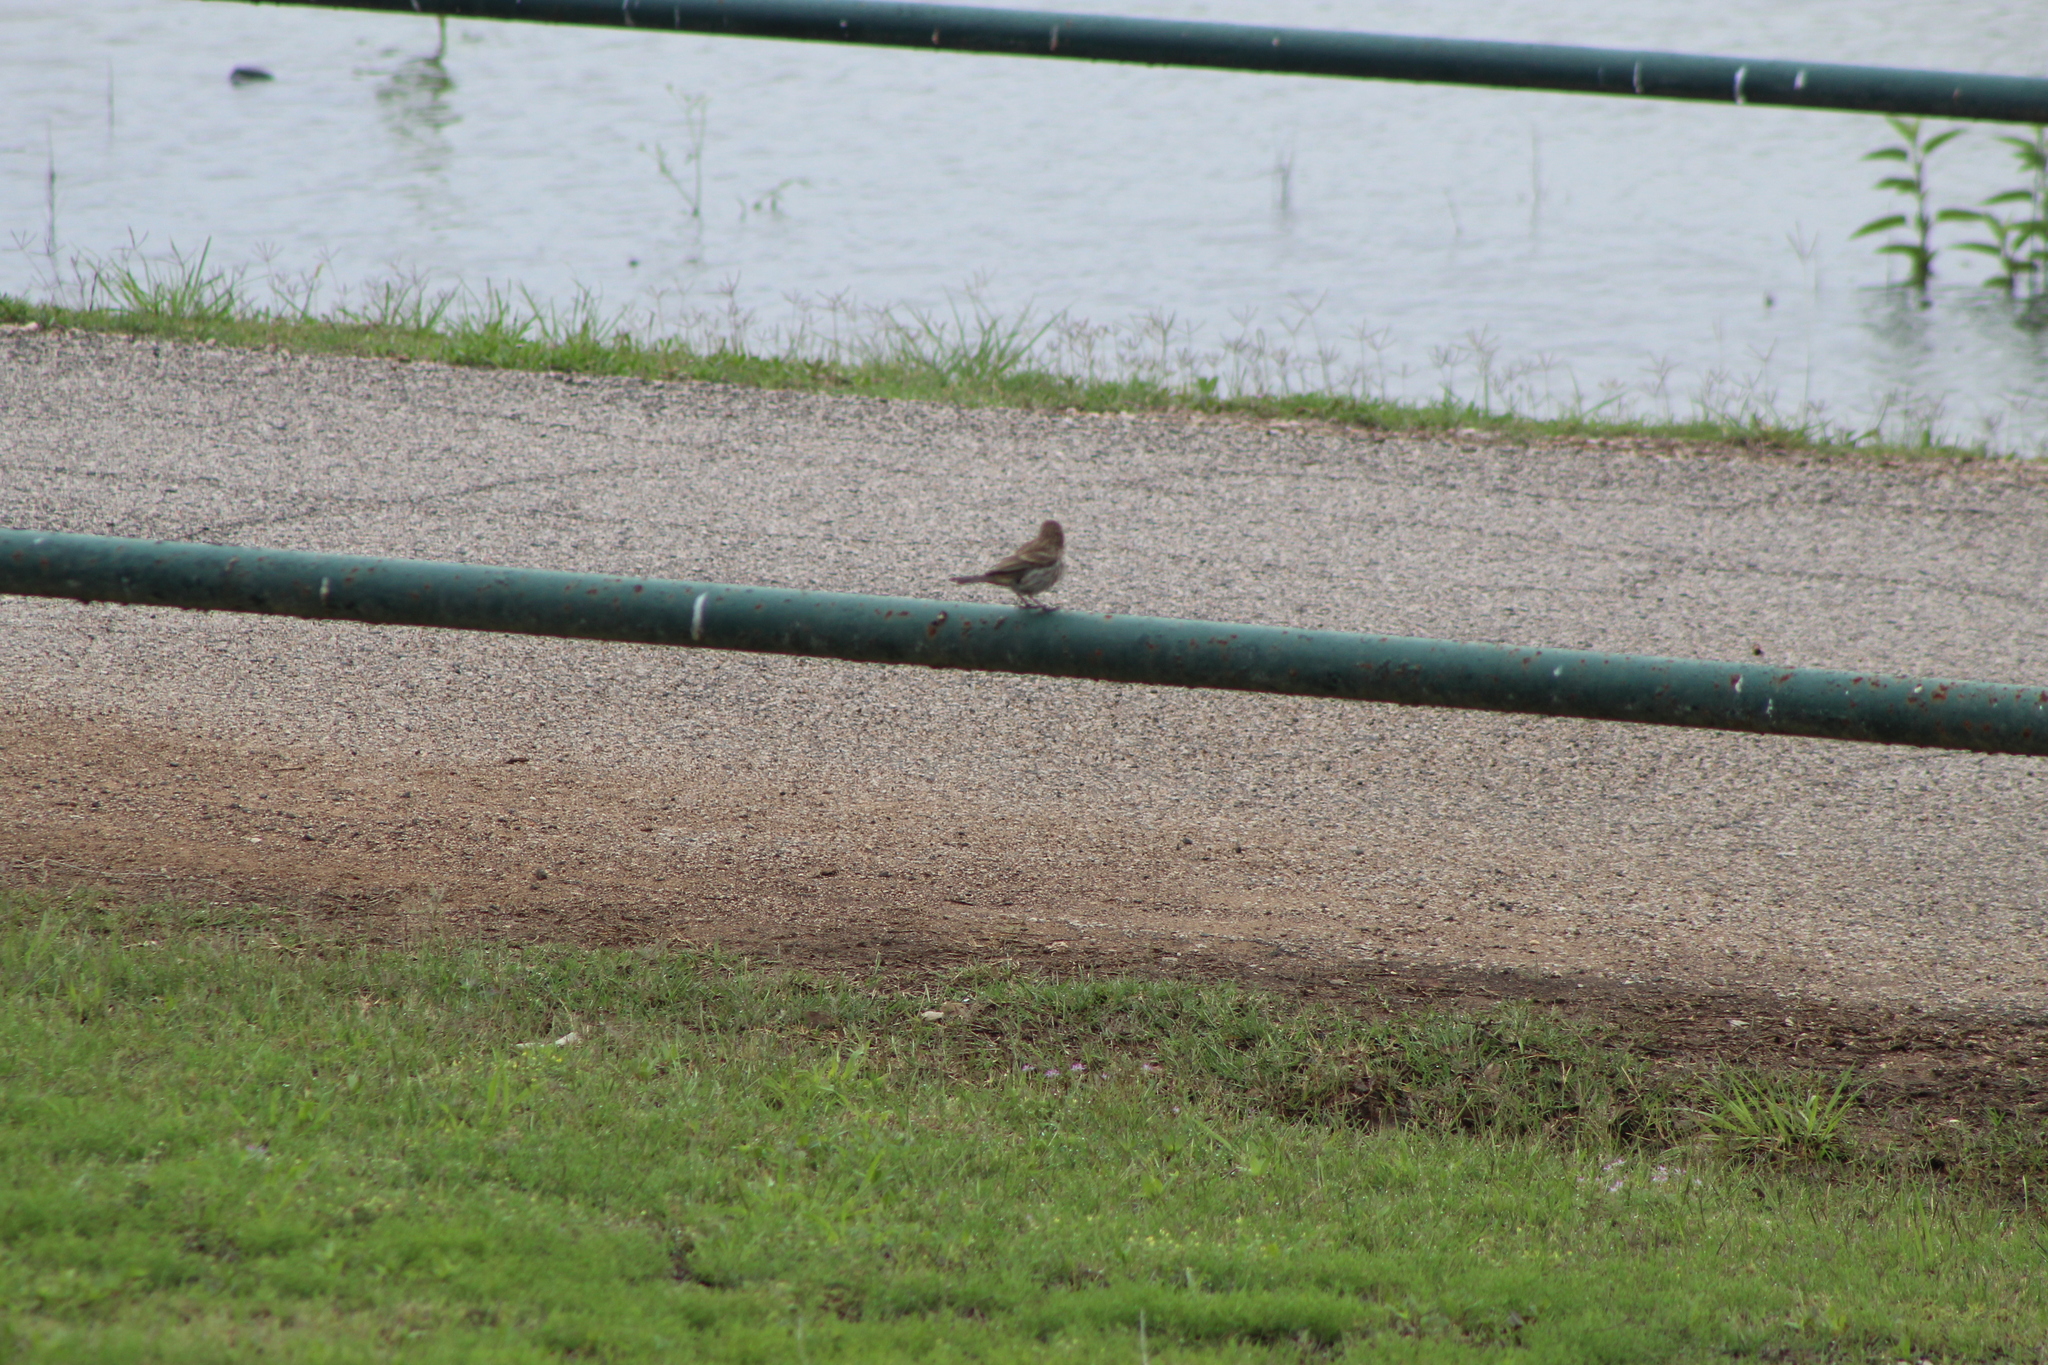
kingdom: Animalia
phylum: Chordata
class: Aves
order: Passeriformes
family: Fringillidae
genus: Haemorhous
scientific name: Haemorhous mexicanus
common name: House finch
